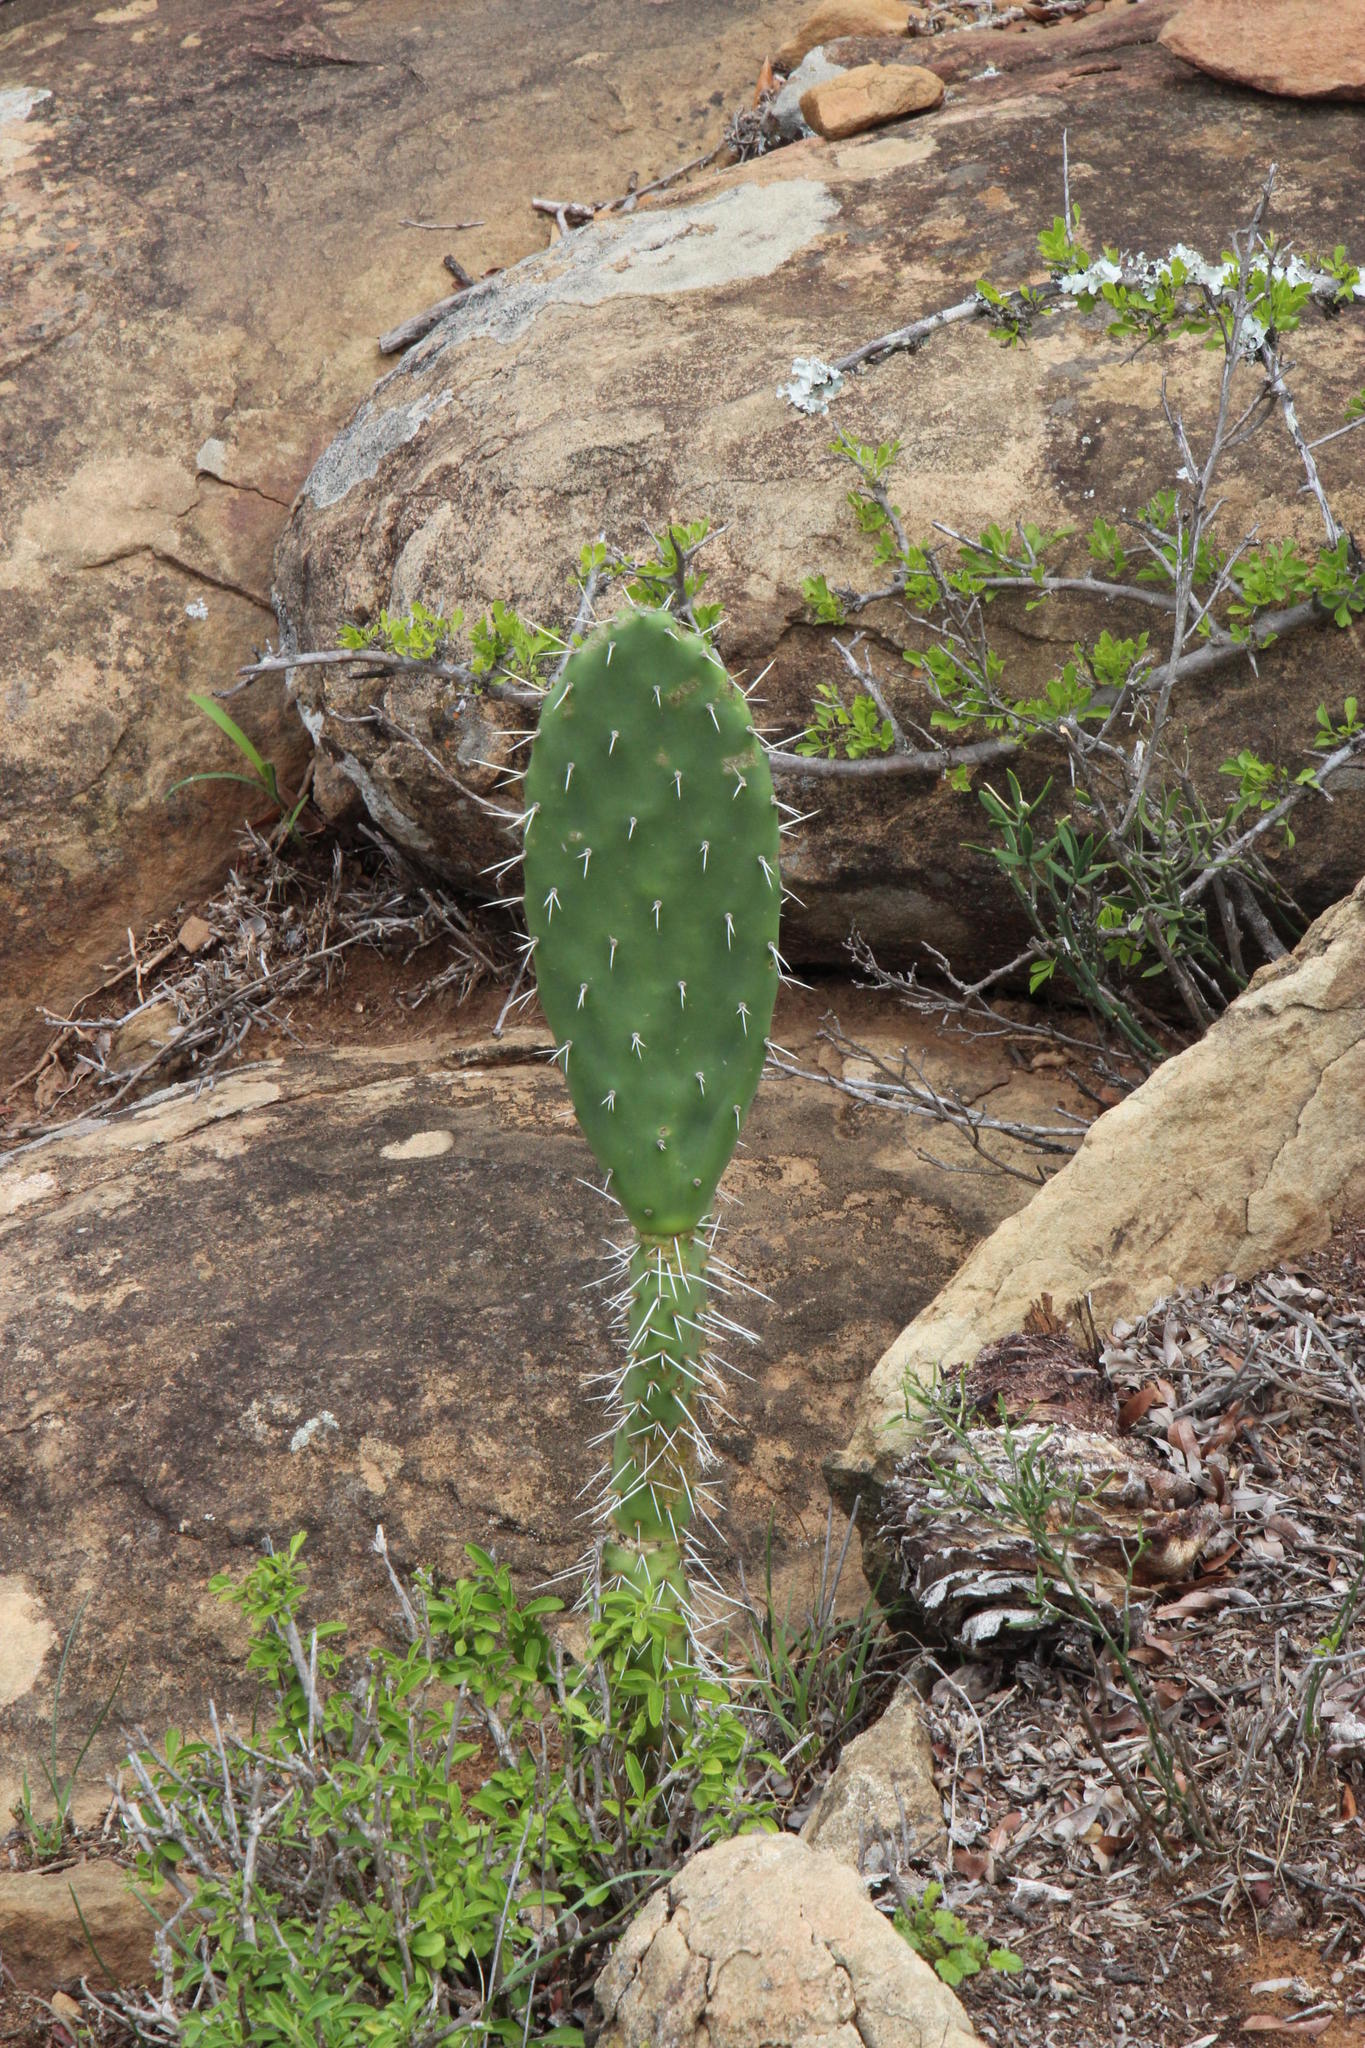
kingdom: Plantae
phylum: Tracheophyta
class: Magnoliopsida
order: Caryophyllales
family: Cactaceae
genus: Opuntia
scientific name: Opuntia ficus-indica
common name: Barbary fig
